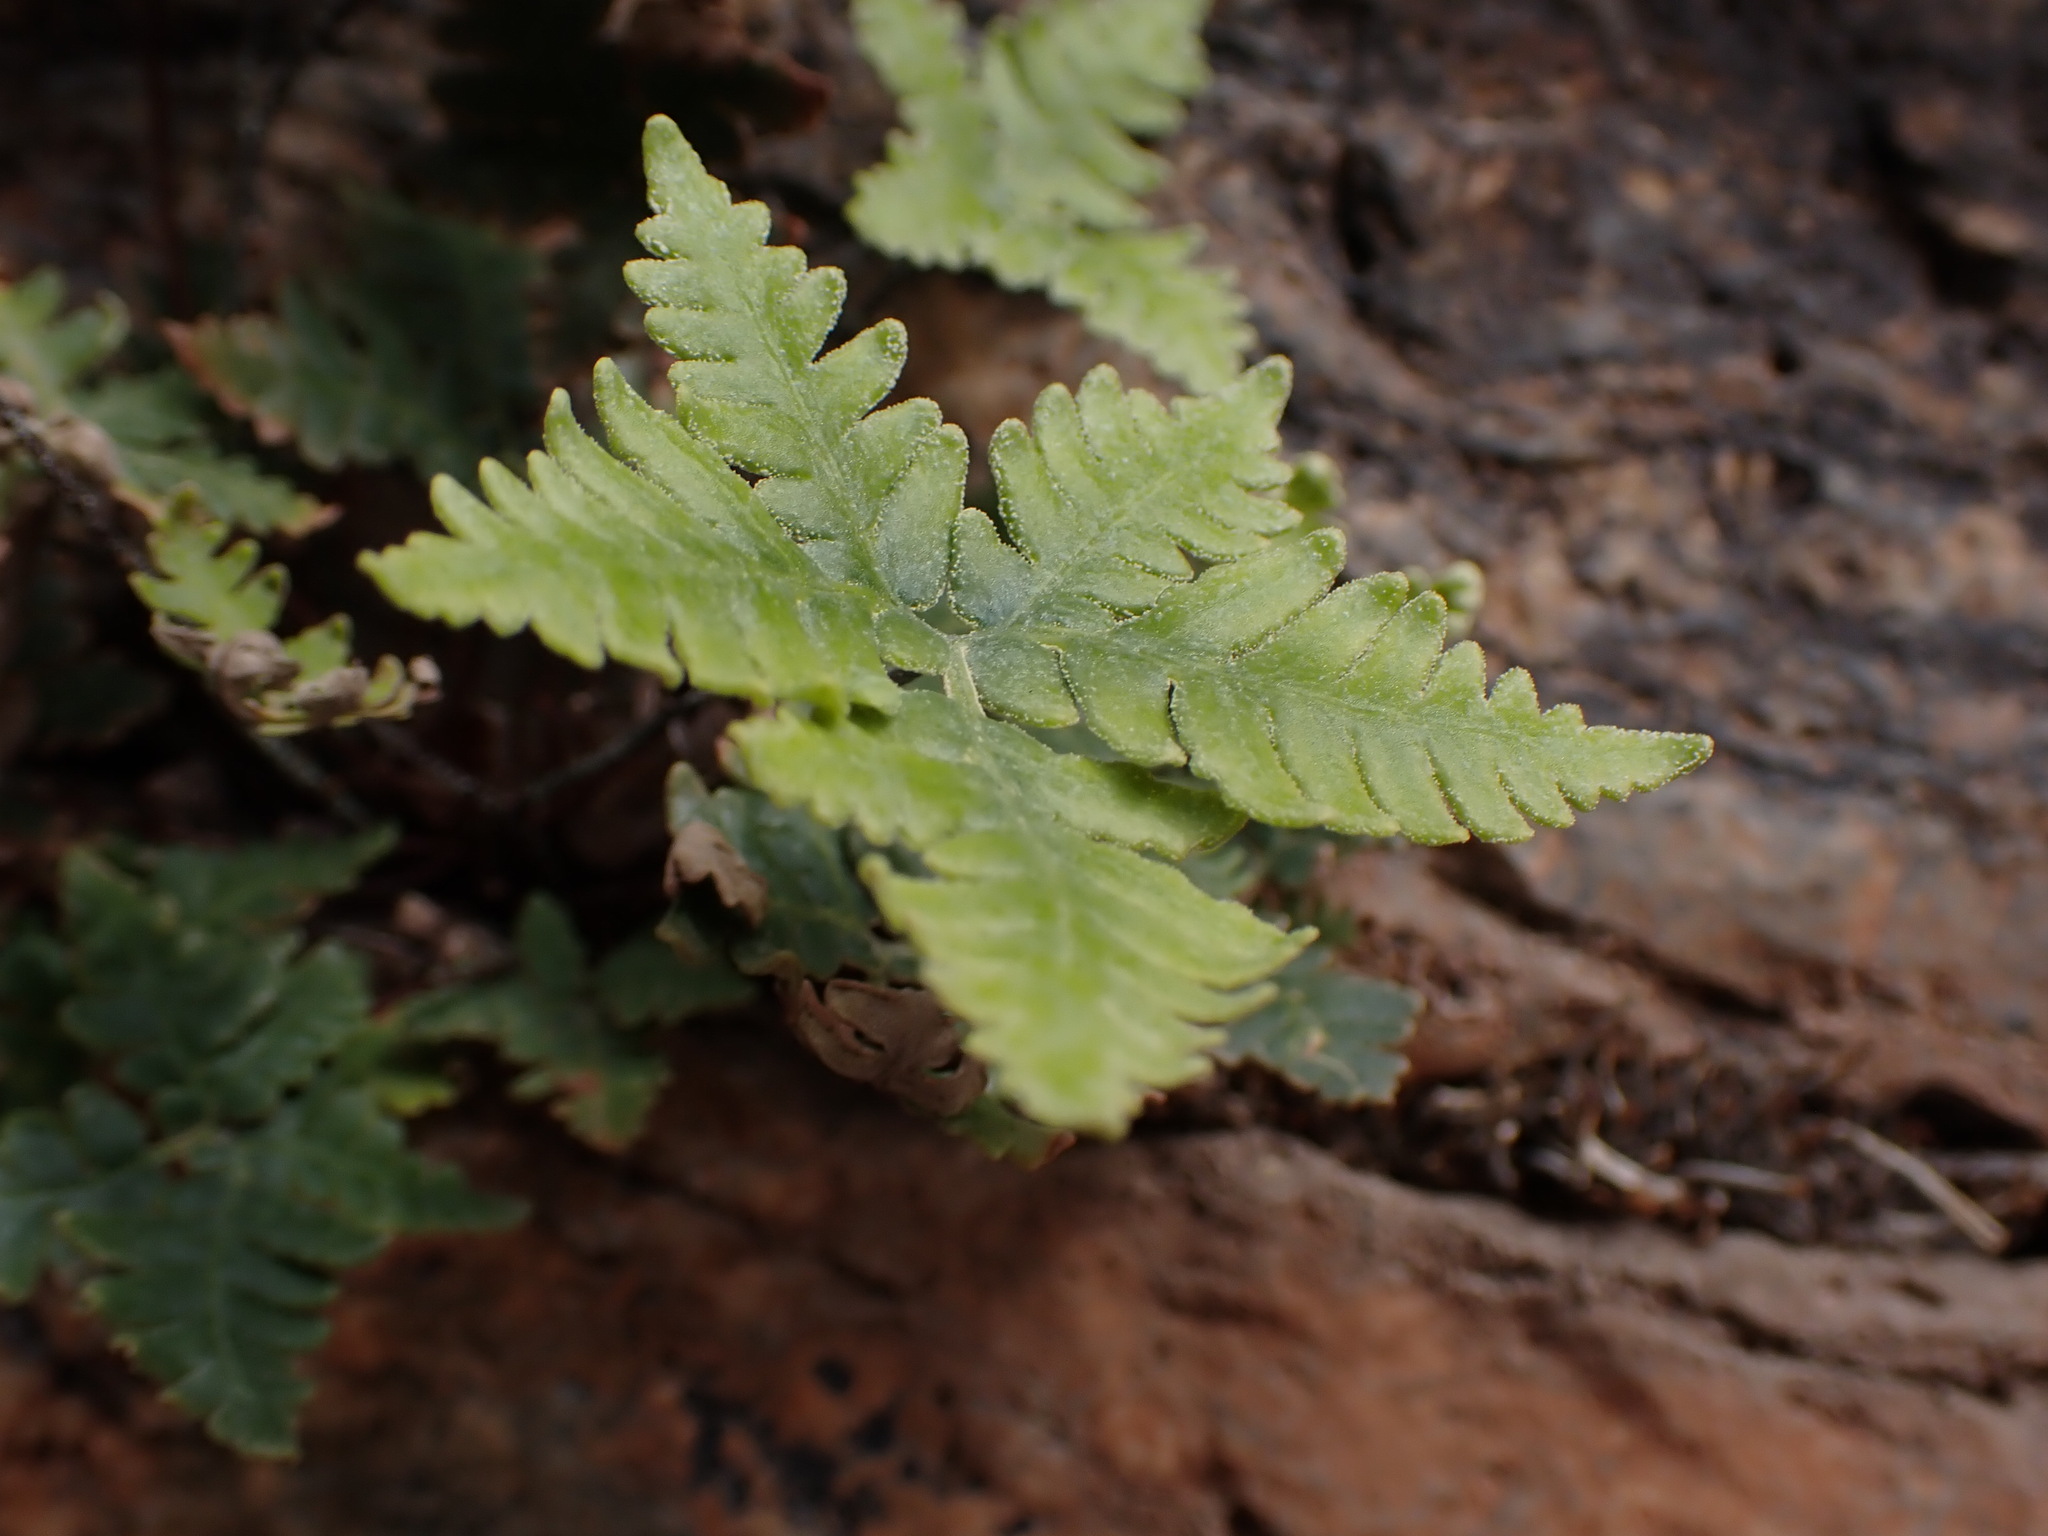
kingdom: Plantae
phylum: Tracheophyta
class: Polypodiopsida
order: Polypodiales
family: Pteridaceae
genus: Notholaena
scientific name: Notholaena standleyi
